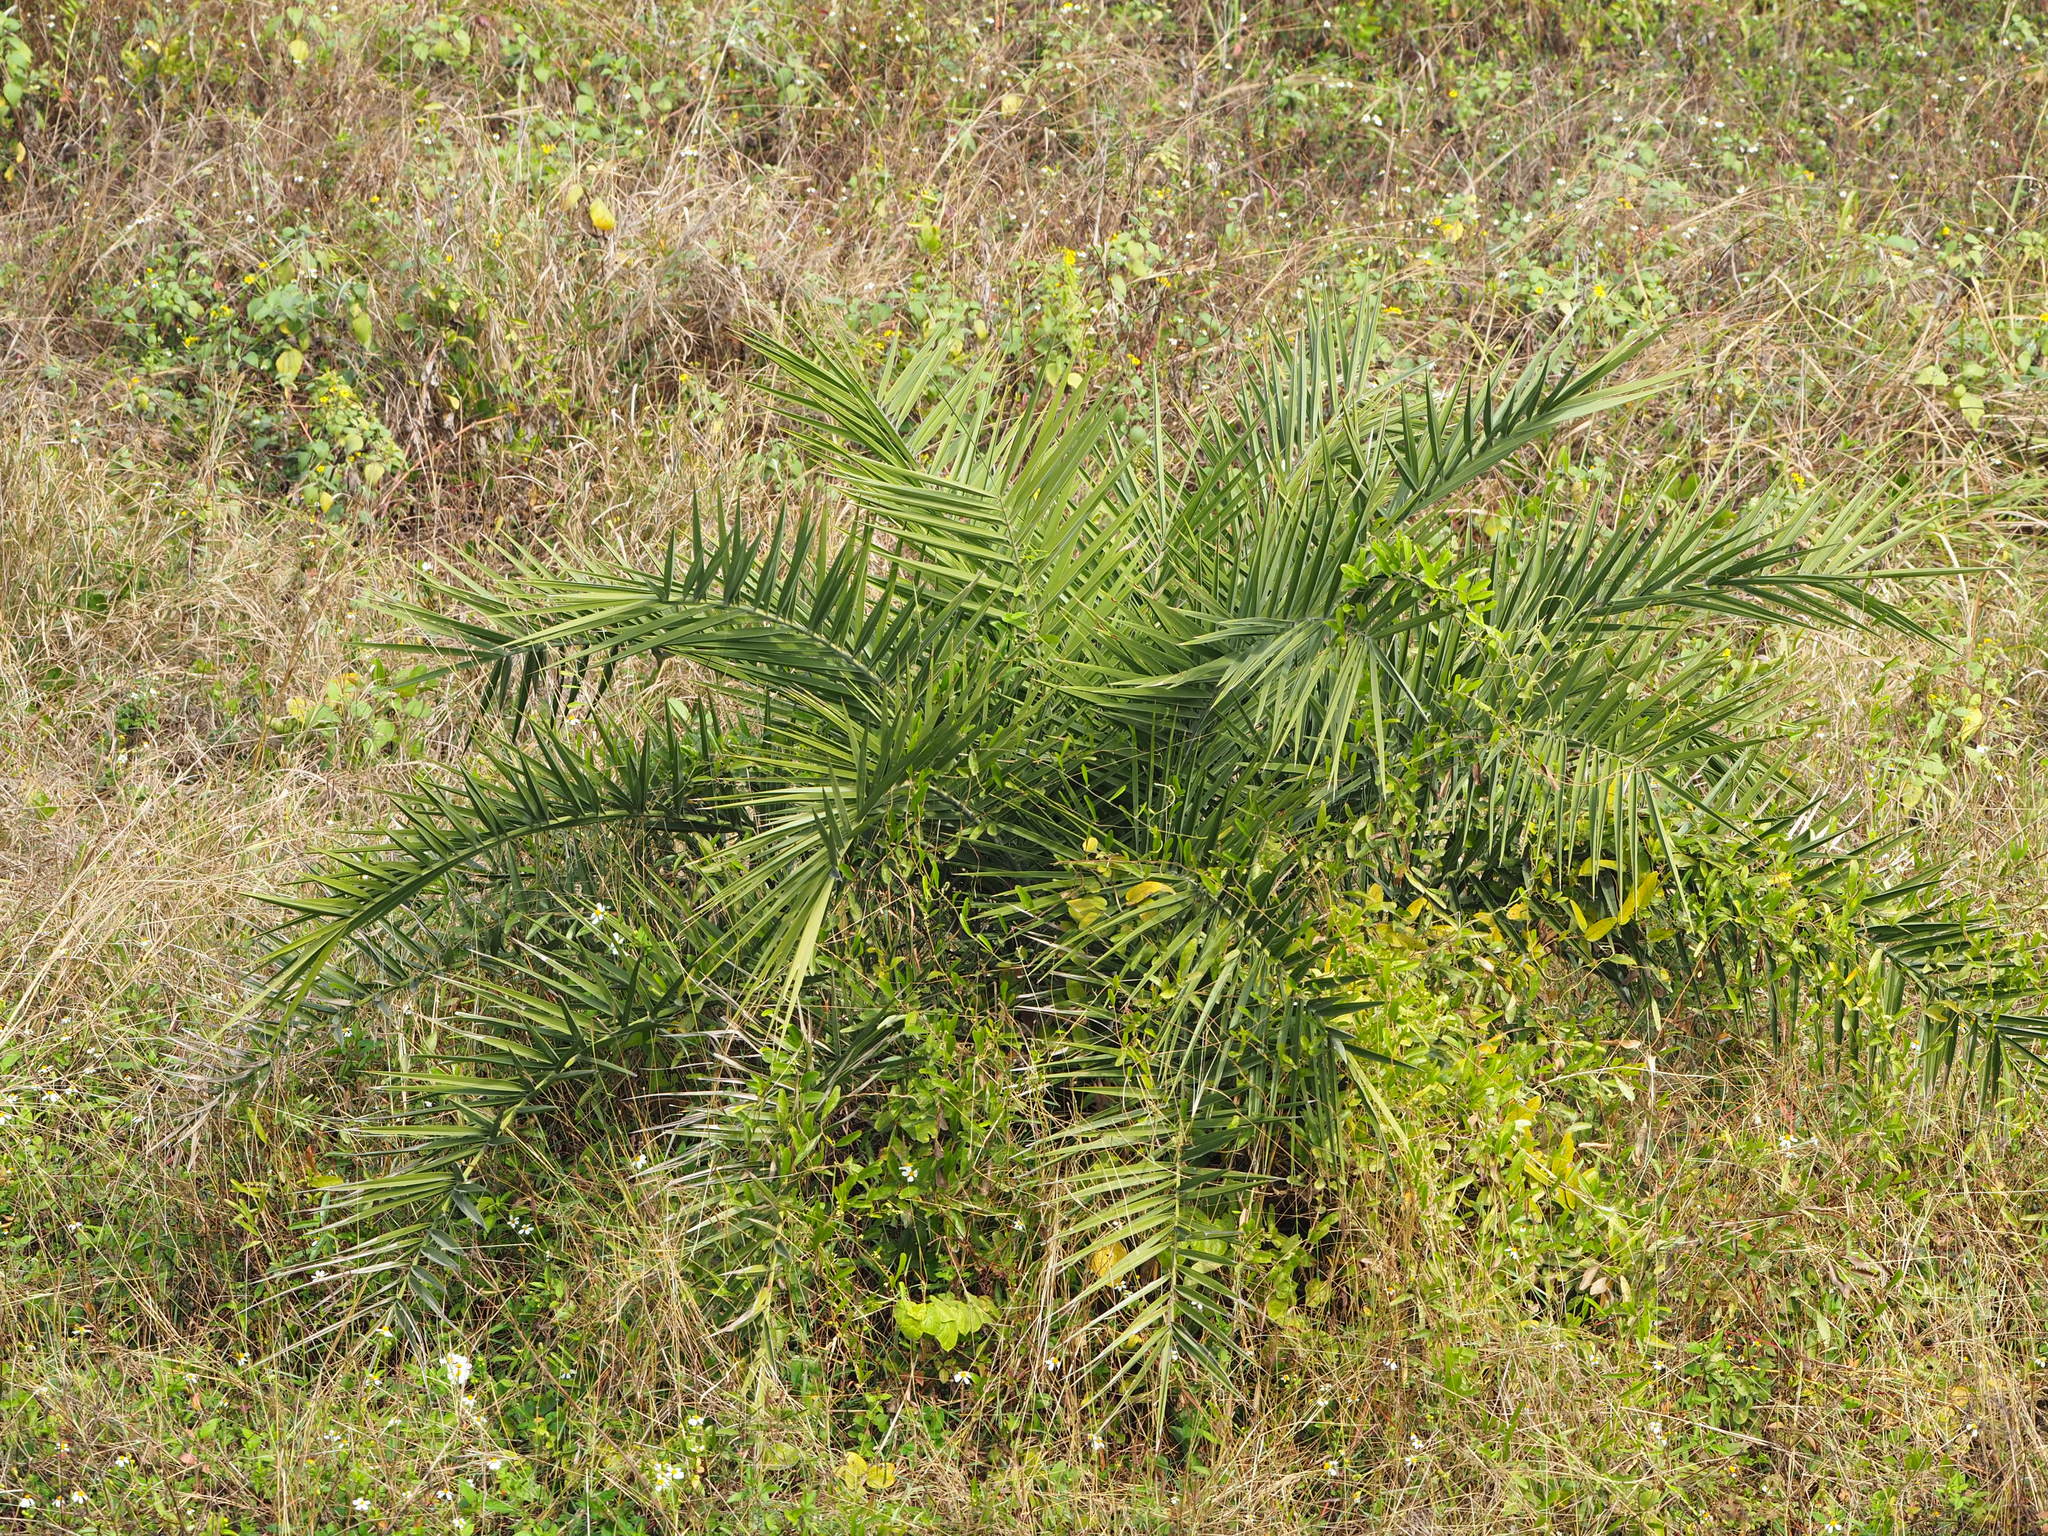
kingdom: Plantae
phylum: Tracheophyta
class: Liliopsida
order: Arecales
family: Arecaceae
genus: Phoenix
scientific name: Phoenix loureiroi
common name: Loureiro's palm
